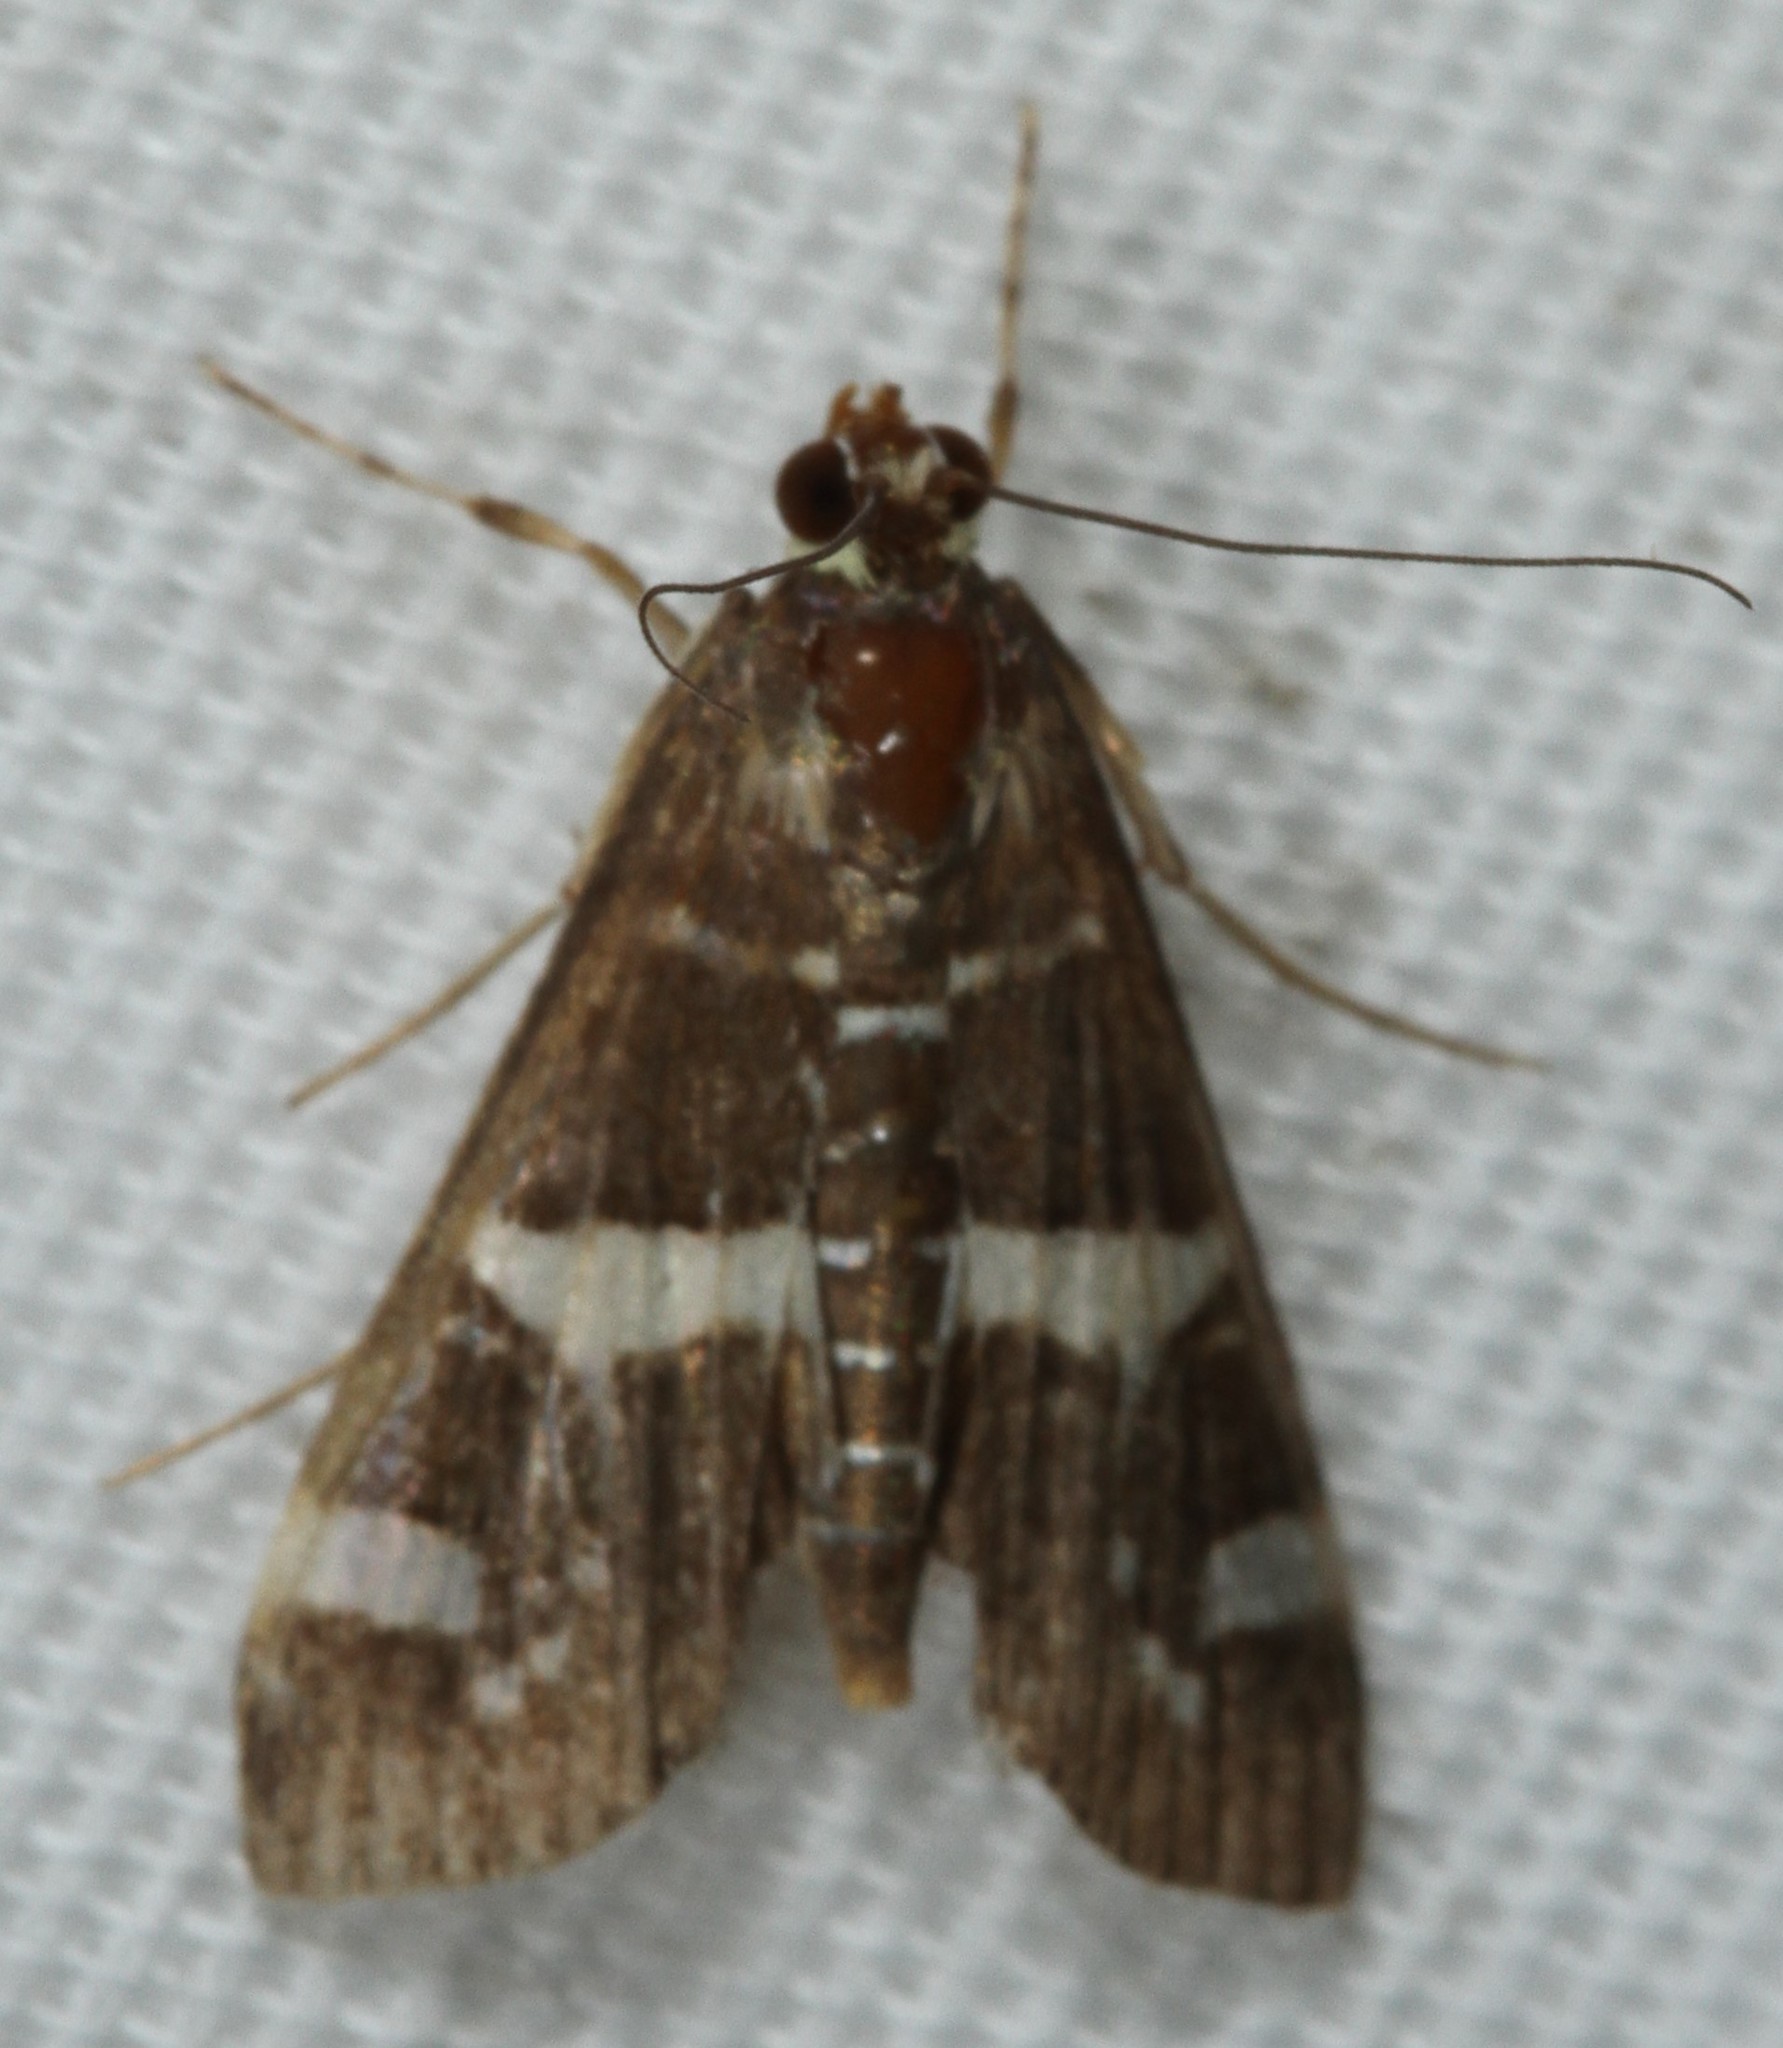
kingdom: Animalia
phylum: Arthropoda
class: Insecta
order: Lepidoptera
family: Crambidae
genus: Spoladea
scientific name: Spoladea recurvalis
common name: Beet webworm moth
